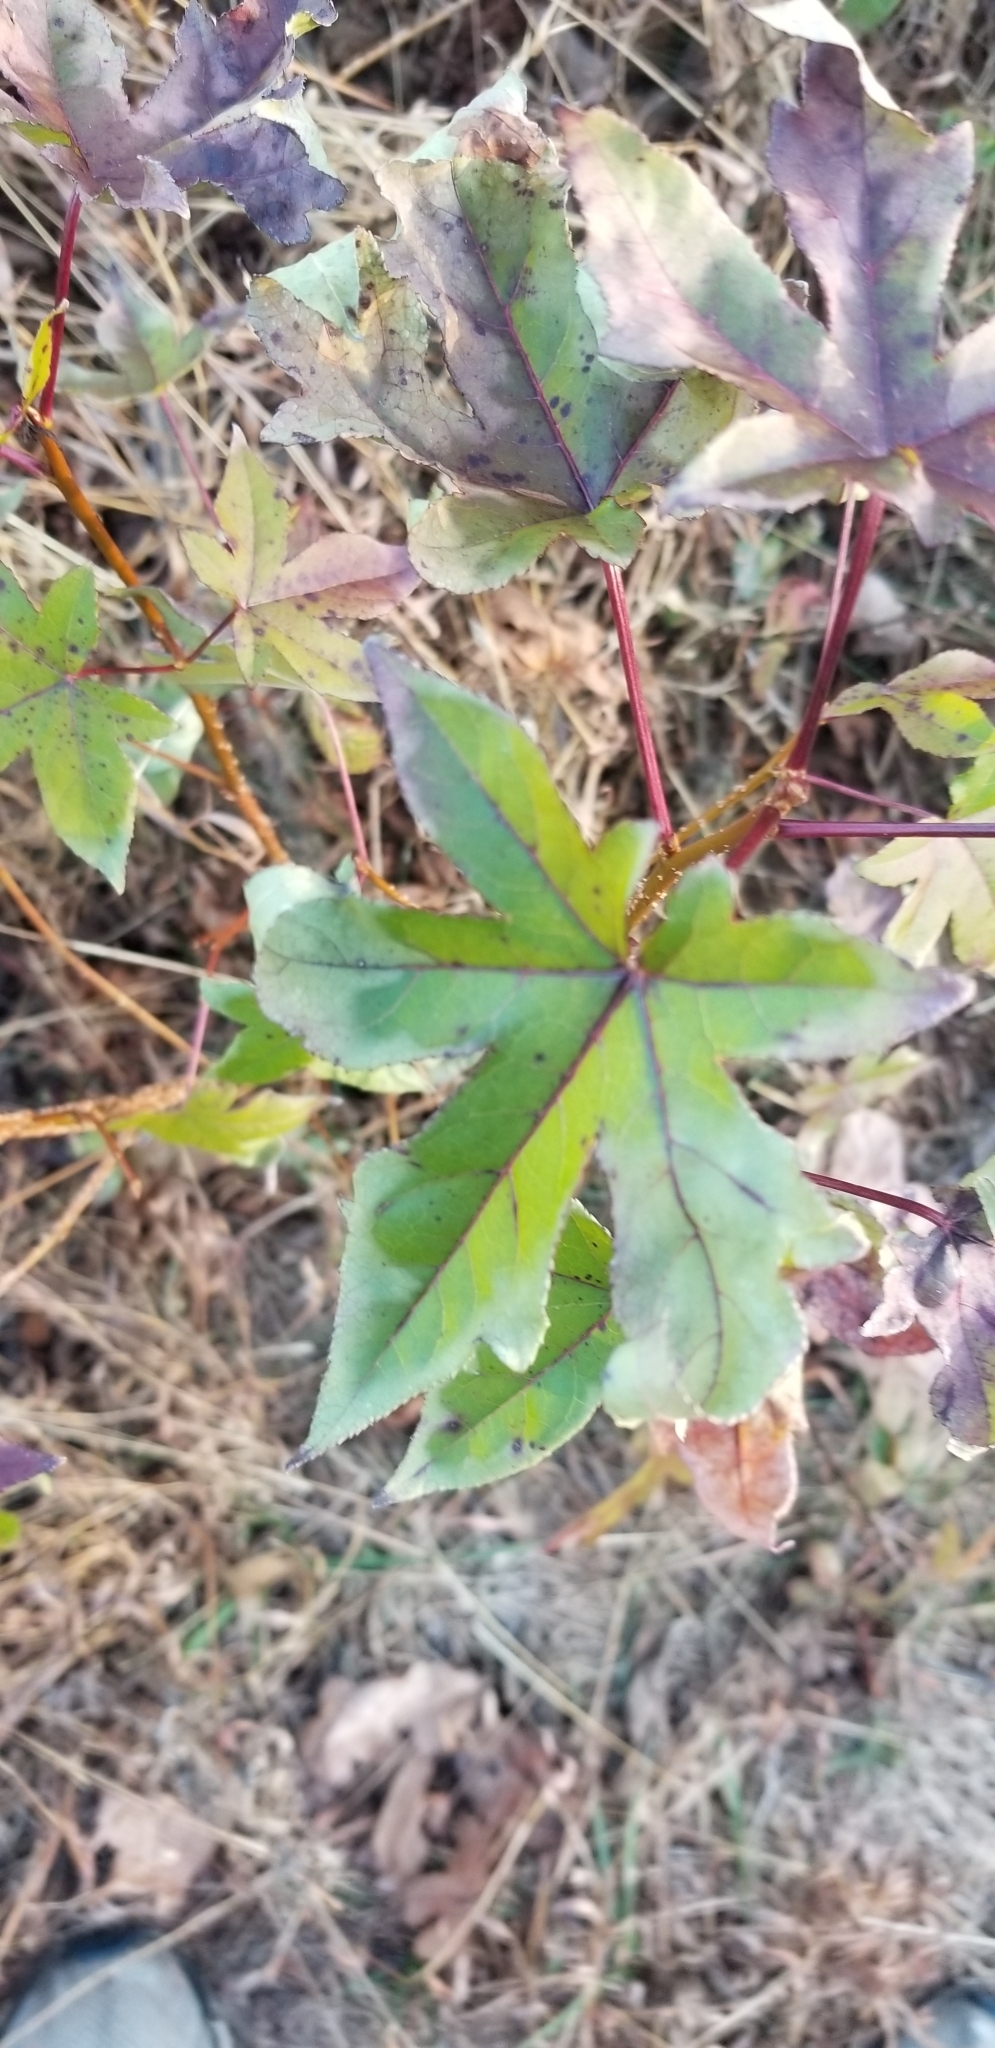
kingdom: Plantae
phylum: Tracheophyta
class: Magnoliopsida
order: Saxifragales
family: Altingiaceae
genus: Liquidambar
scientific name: Liquidambar styraciflua
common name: Sweet gum
